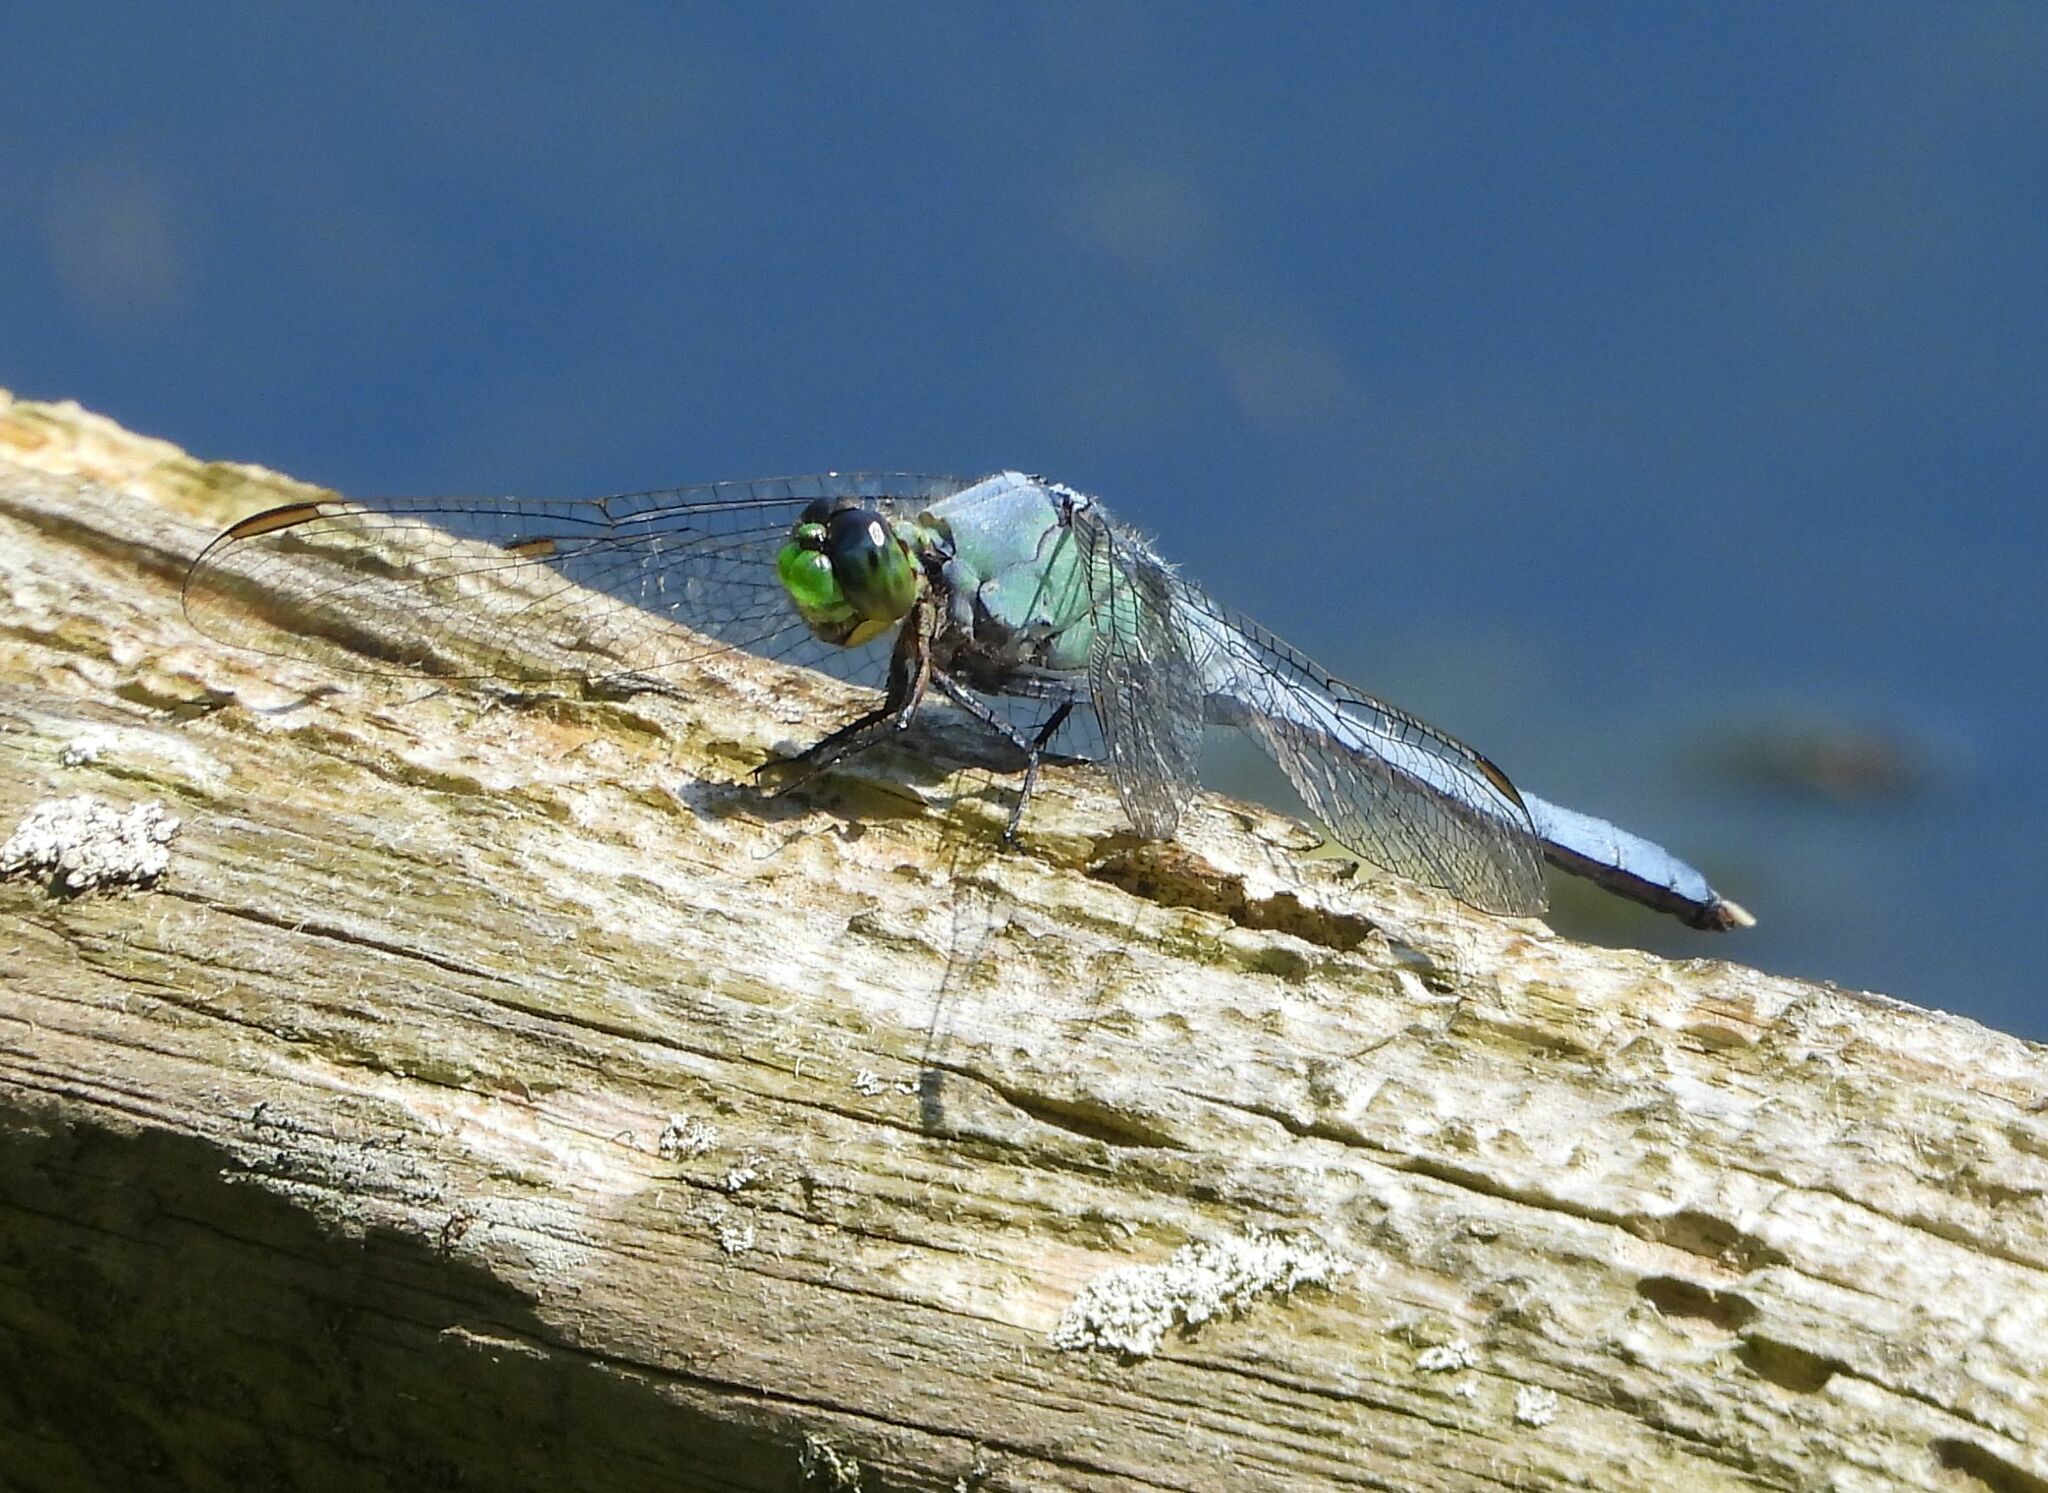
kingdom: Animalia
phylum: Arthropoda
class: Insecta
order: Odonata
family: Libellulidae
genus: Erythemis
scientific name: Erythemis simplicicollis
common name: Eastern pondhawk
